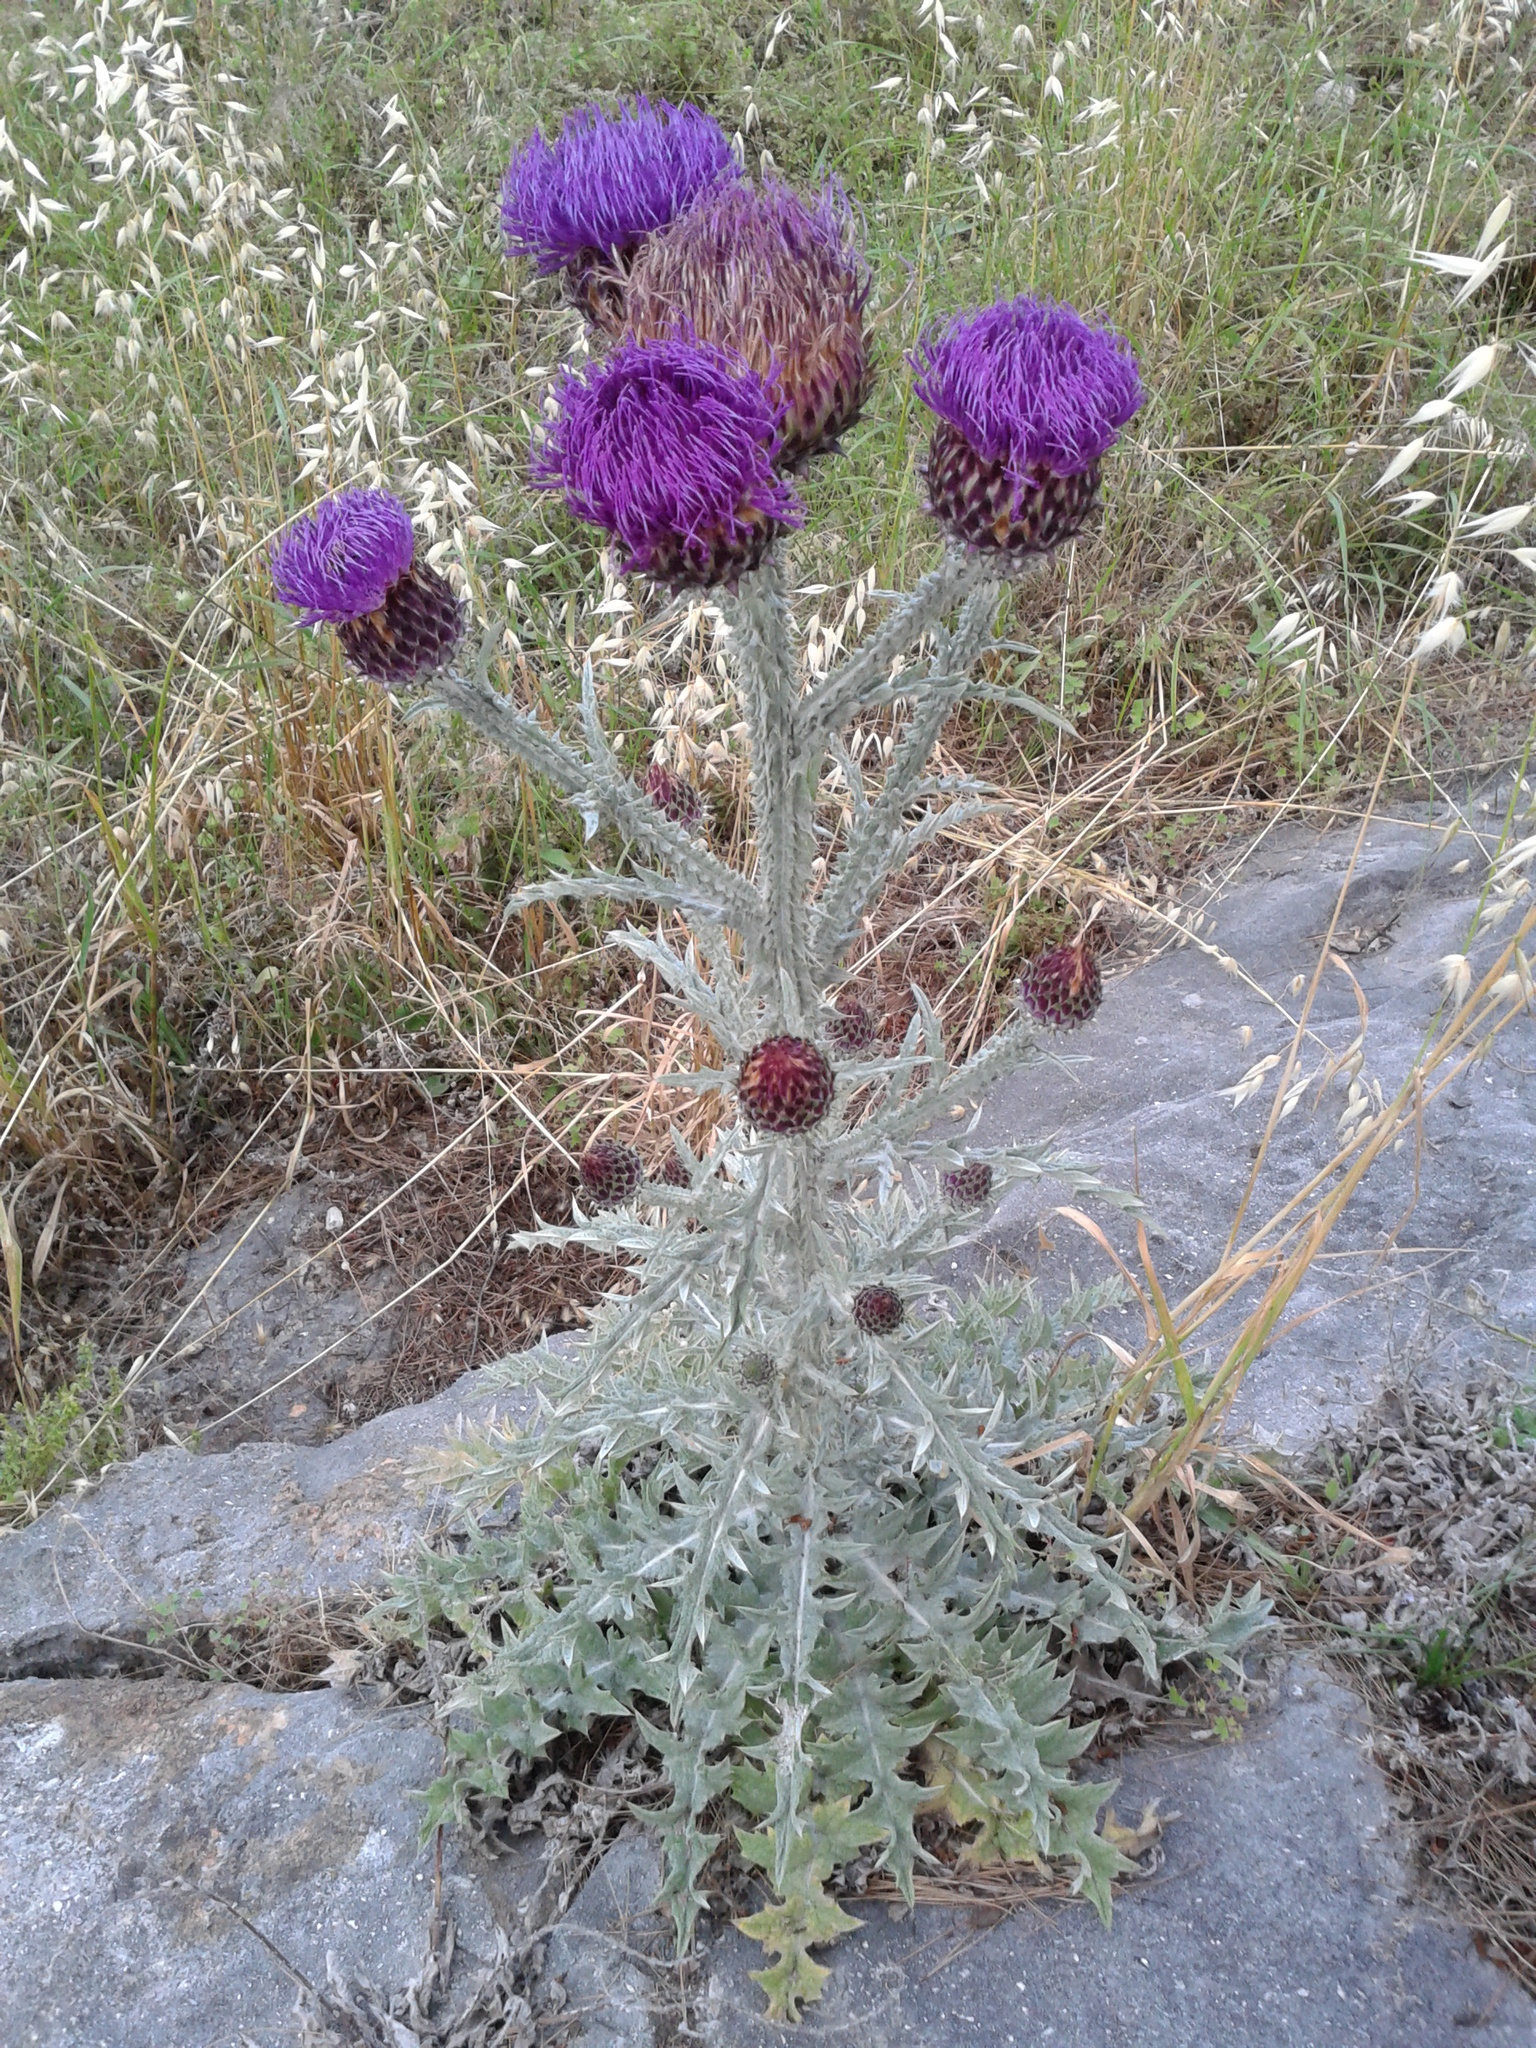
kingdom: Plantae
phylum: Tracheophyta
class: Magnoliopsida
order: Asterales
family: Asteraceae
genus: Onopordum
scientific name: Onopordum illyricum
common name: Illyrian thistle
